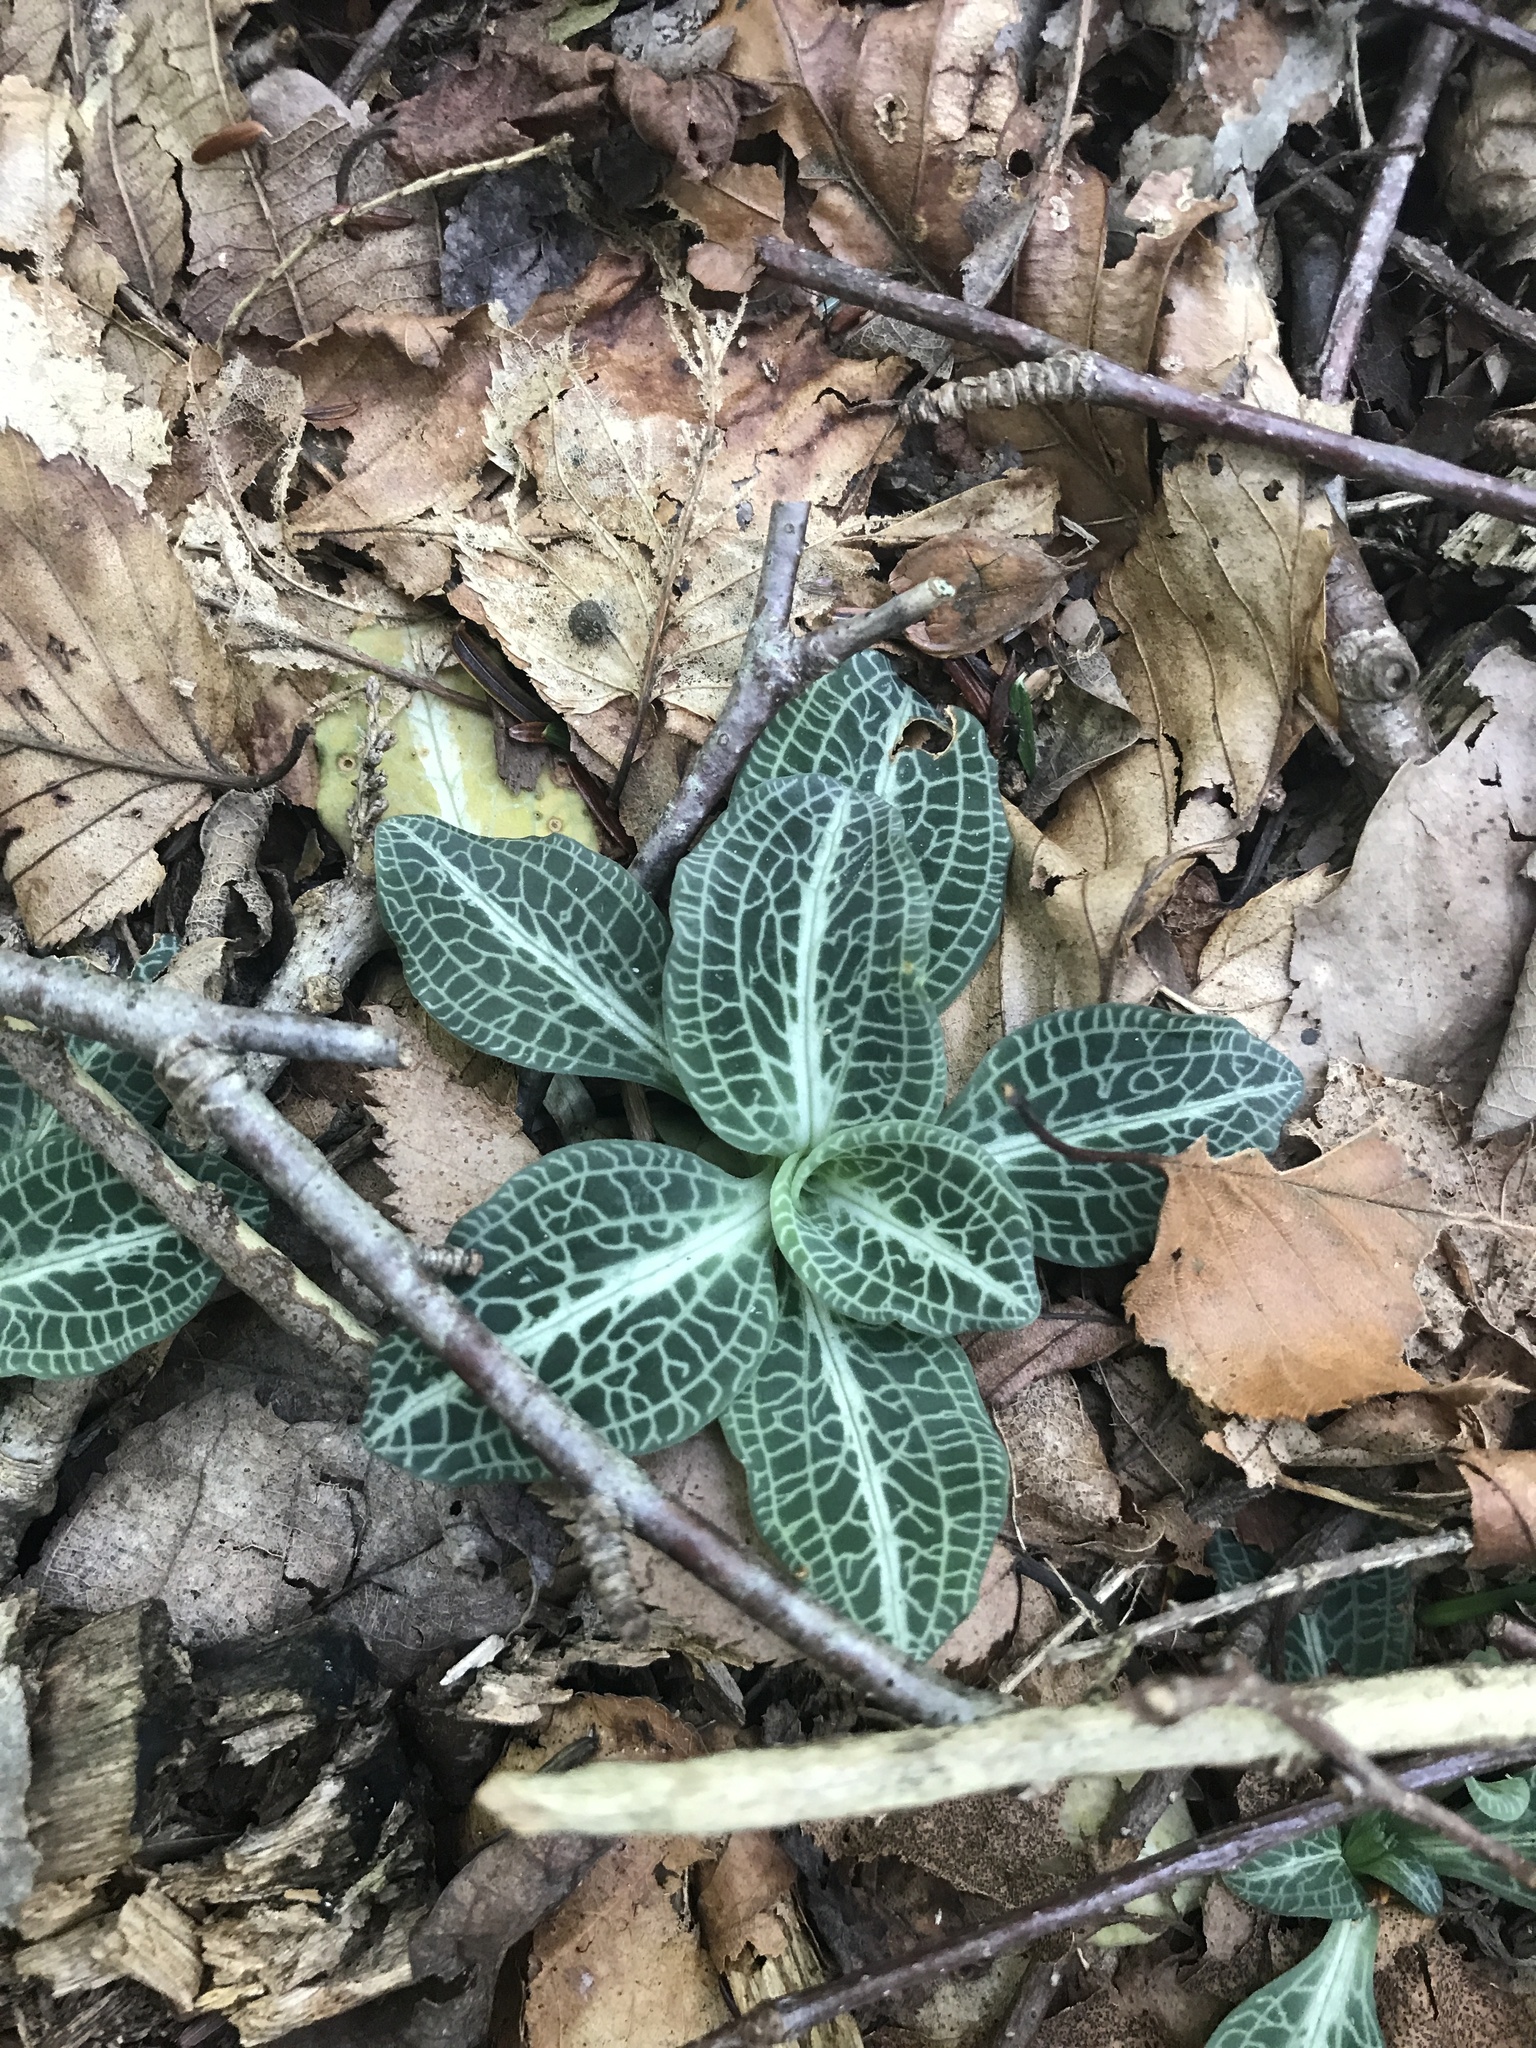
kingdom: Plantae
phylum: Tracheophyta
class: Liliopsida
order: Asparagales
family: Orchidaceae
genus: Goodyera
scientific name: Goodyera pubescens
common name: Downy rattlesnake-plantain
